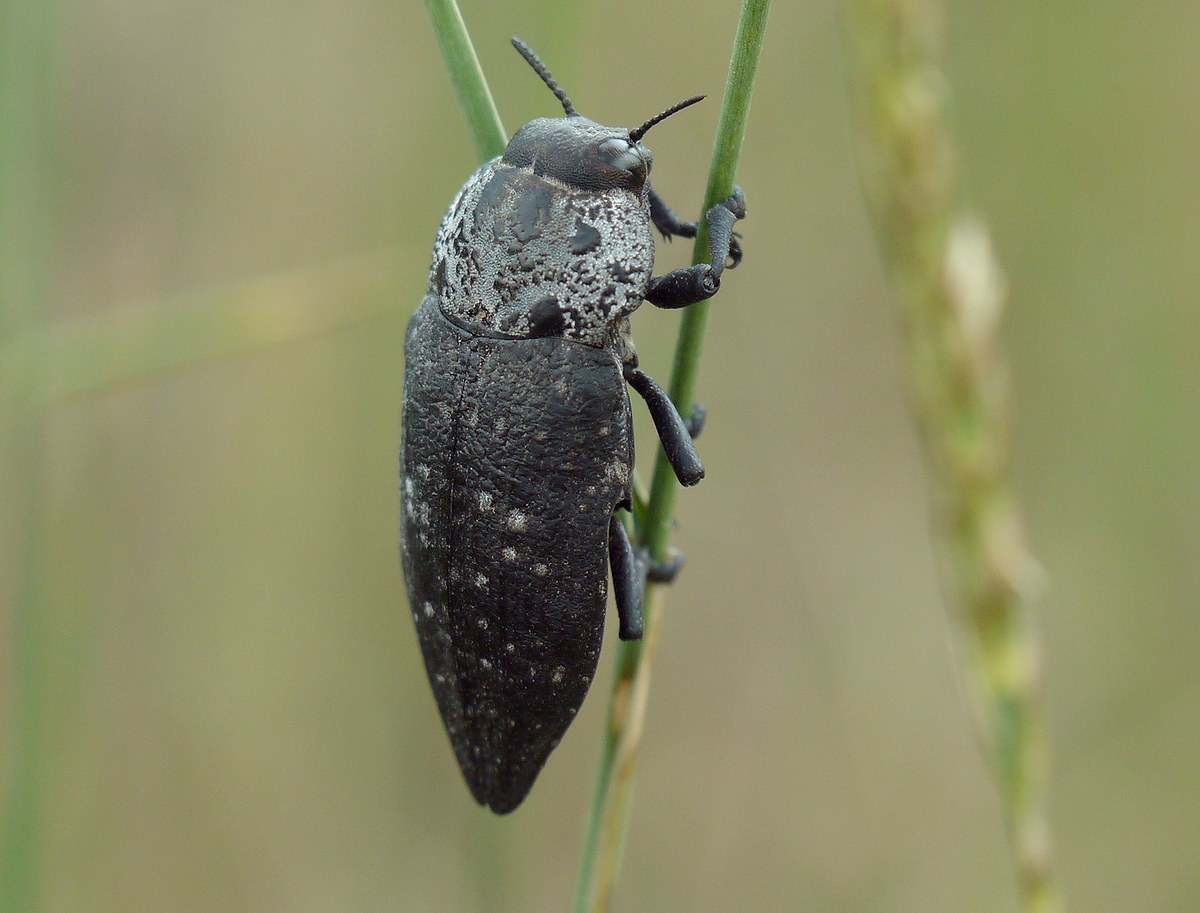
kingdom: Animalia
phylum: Arthropoda
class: Insecta
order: Coleoptera
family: Buprestidae
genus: Capnodis
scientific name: Capnodis tenebrionis
